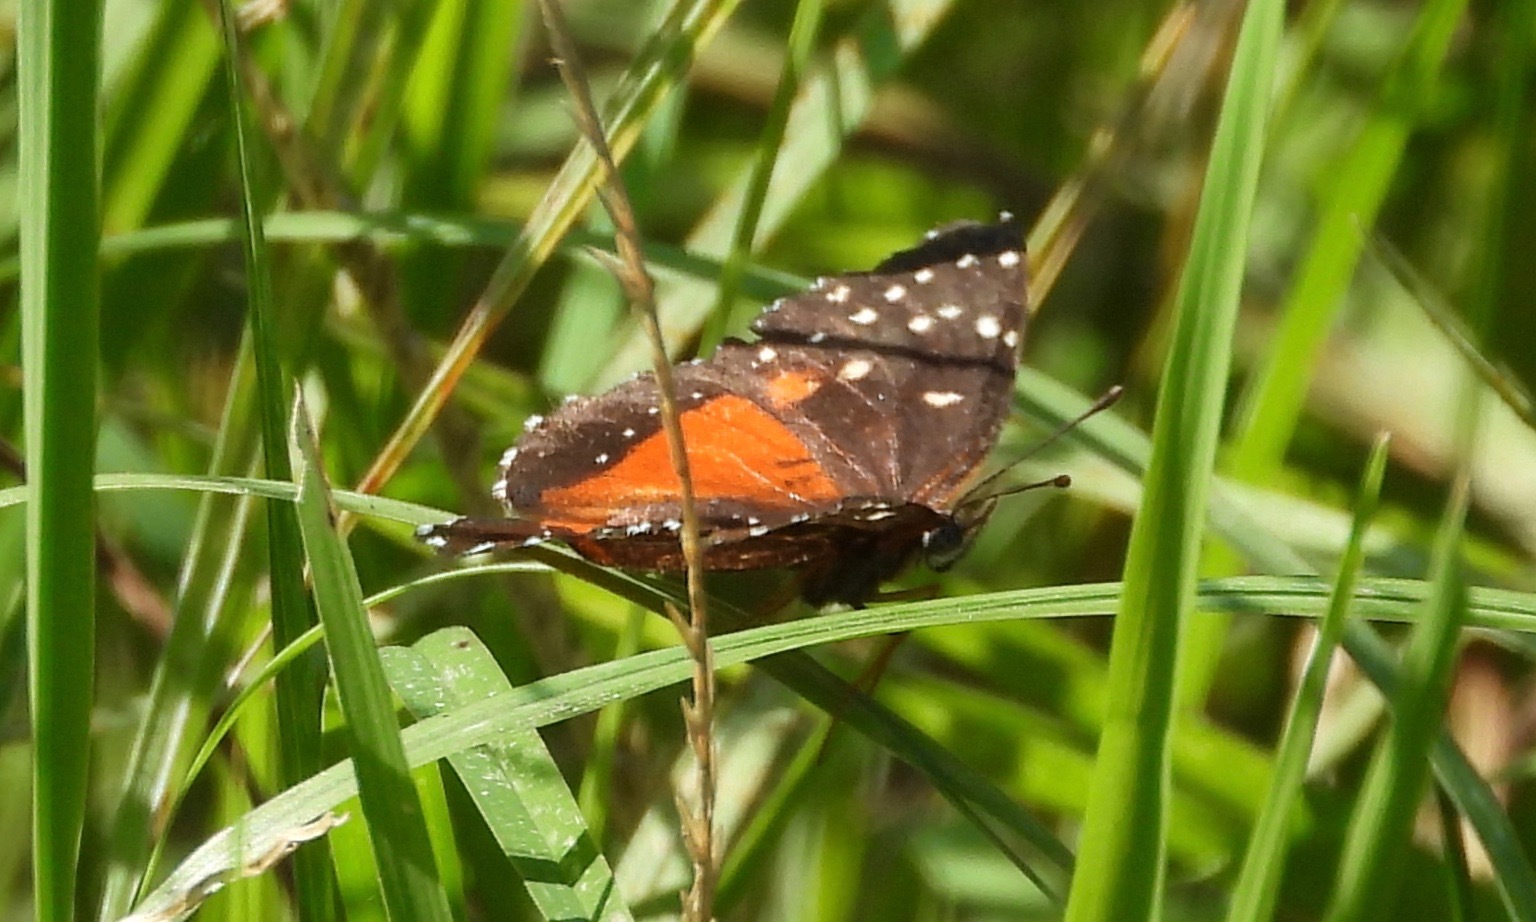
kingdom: Animalia
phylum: Arthropoda
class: Insecta
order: Lepidoptera
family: Nymphalidae
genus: Chlosyne
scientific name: Chlosyne lacinia
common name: Bordered patch
